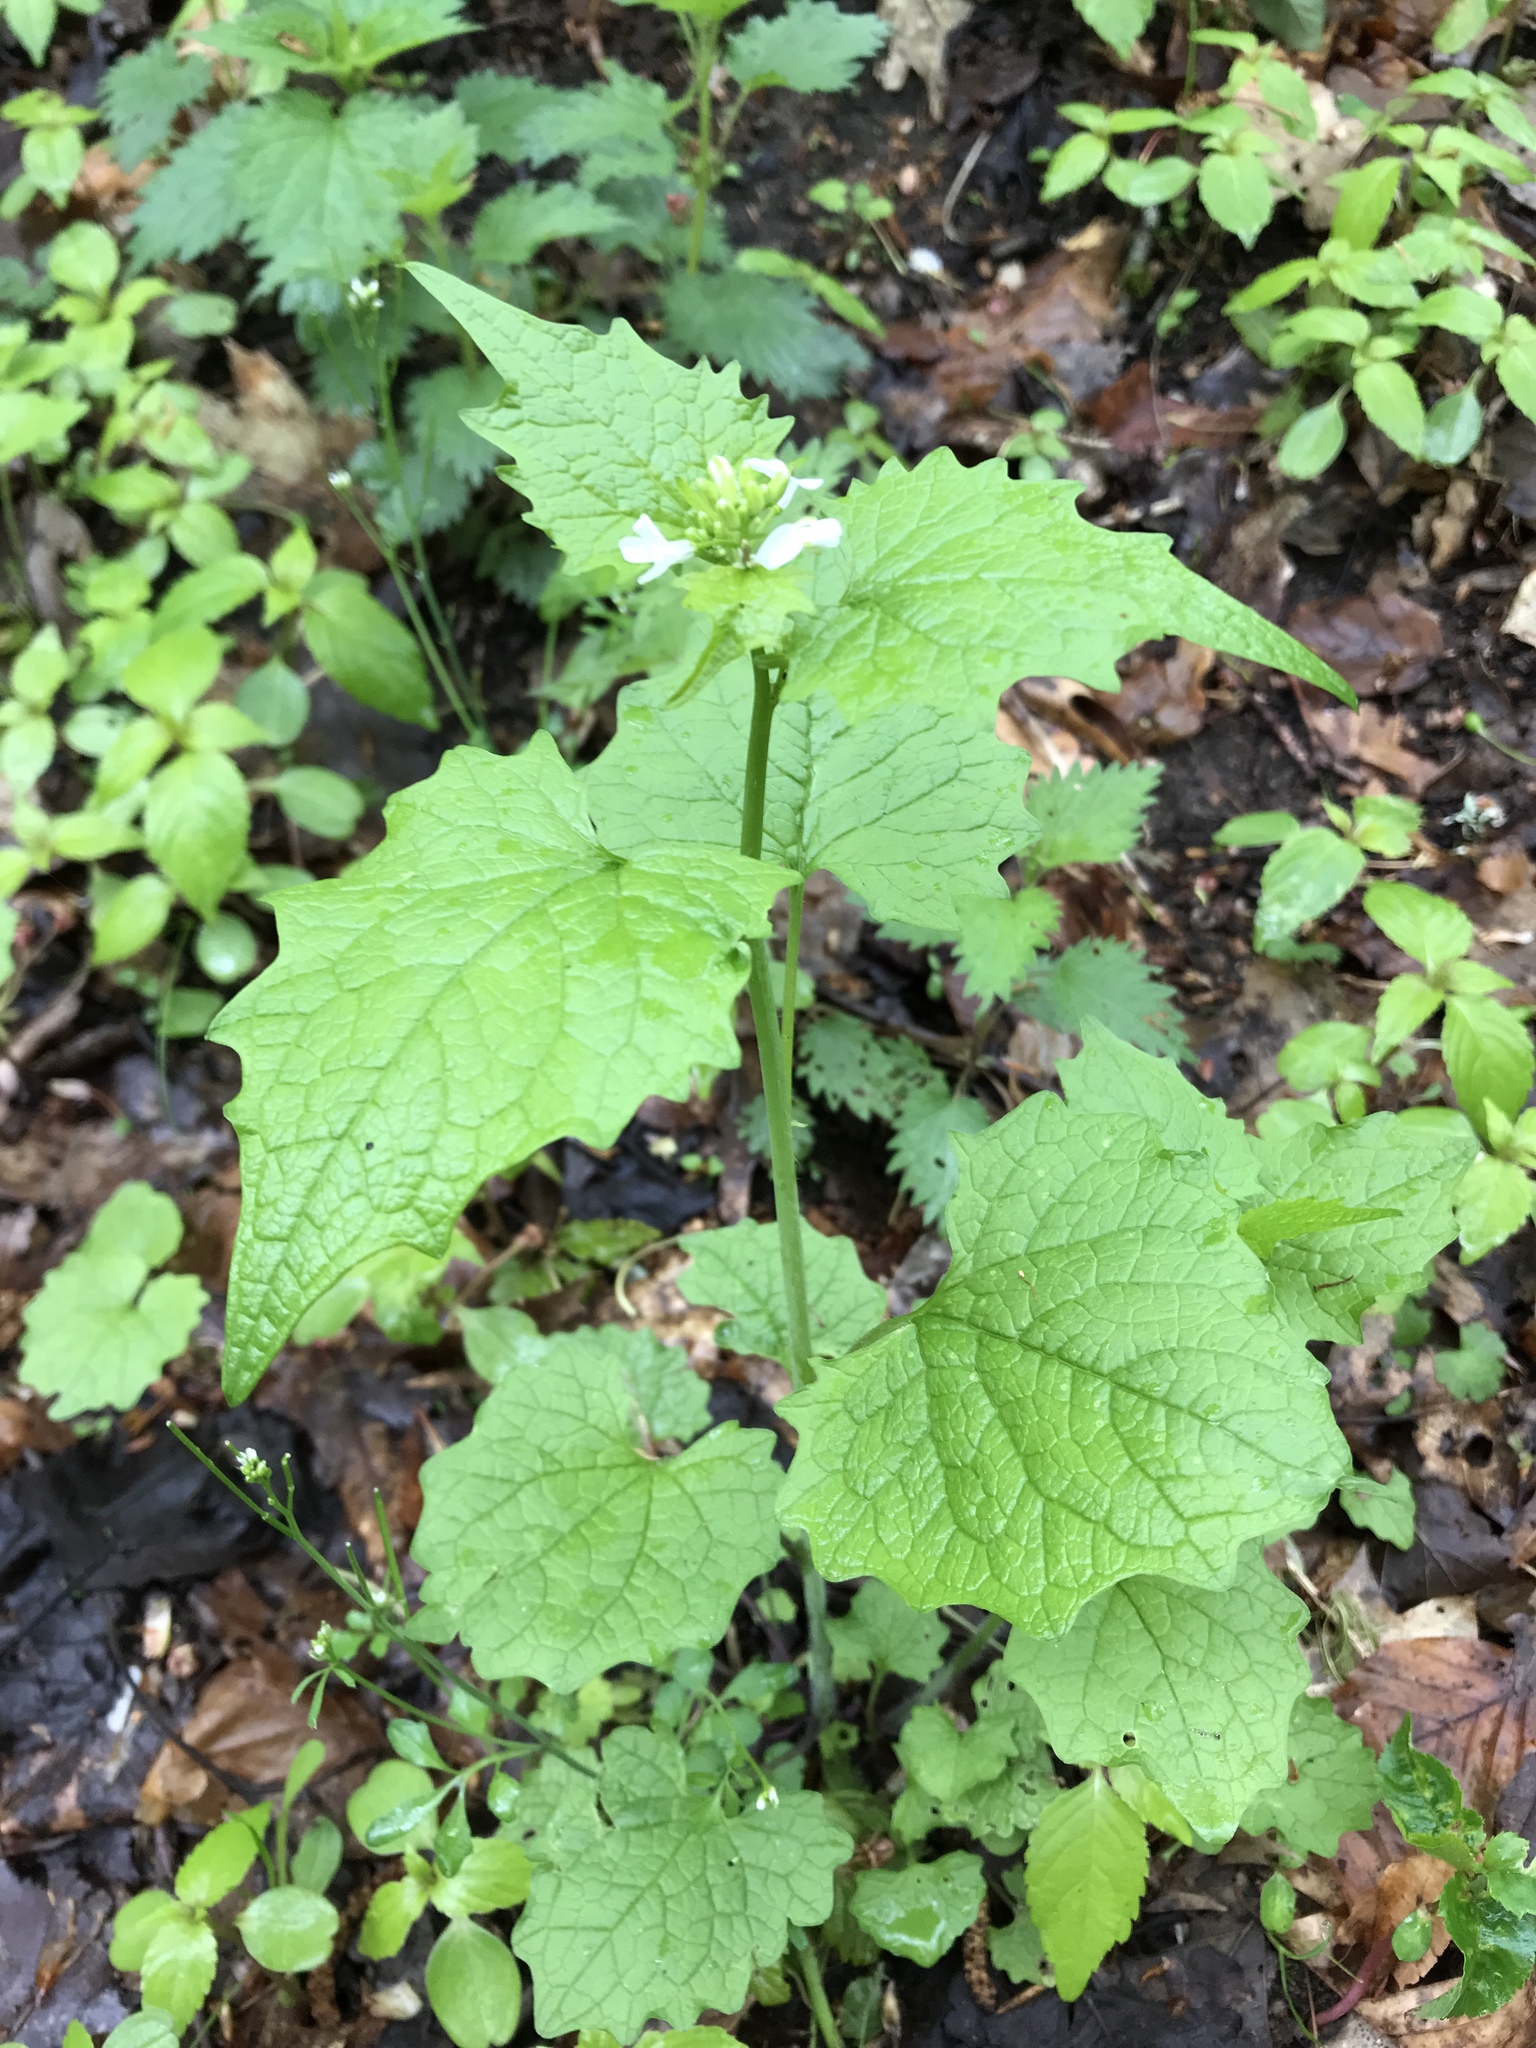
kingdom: Plantae
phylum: Tracheophyta
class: Magnoliopsida
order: Brassicales
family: Brassicaceae
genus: Alliaria
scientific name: Alliaria petiolata
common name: Garlic mustard
